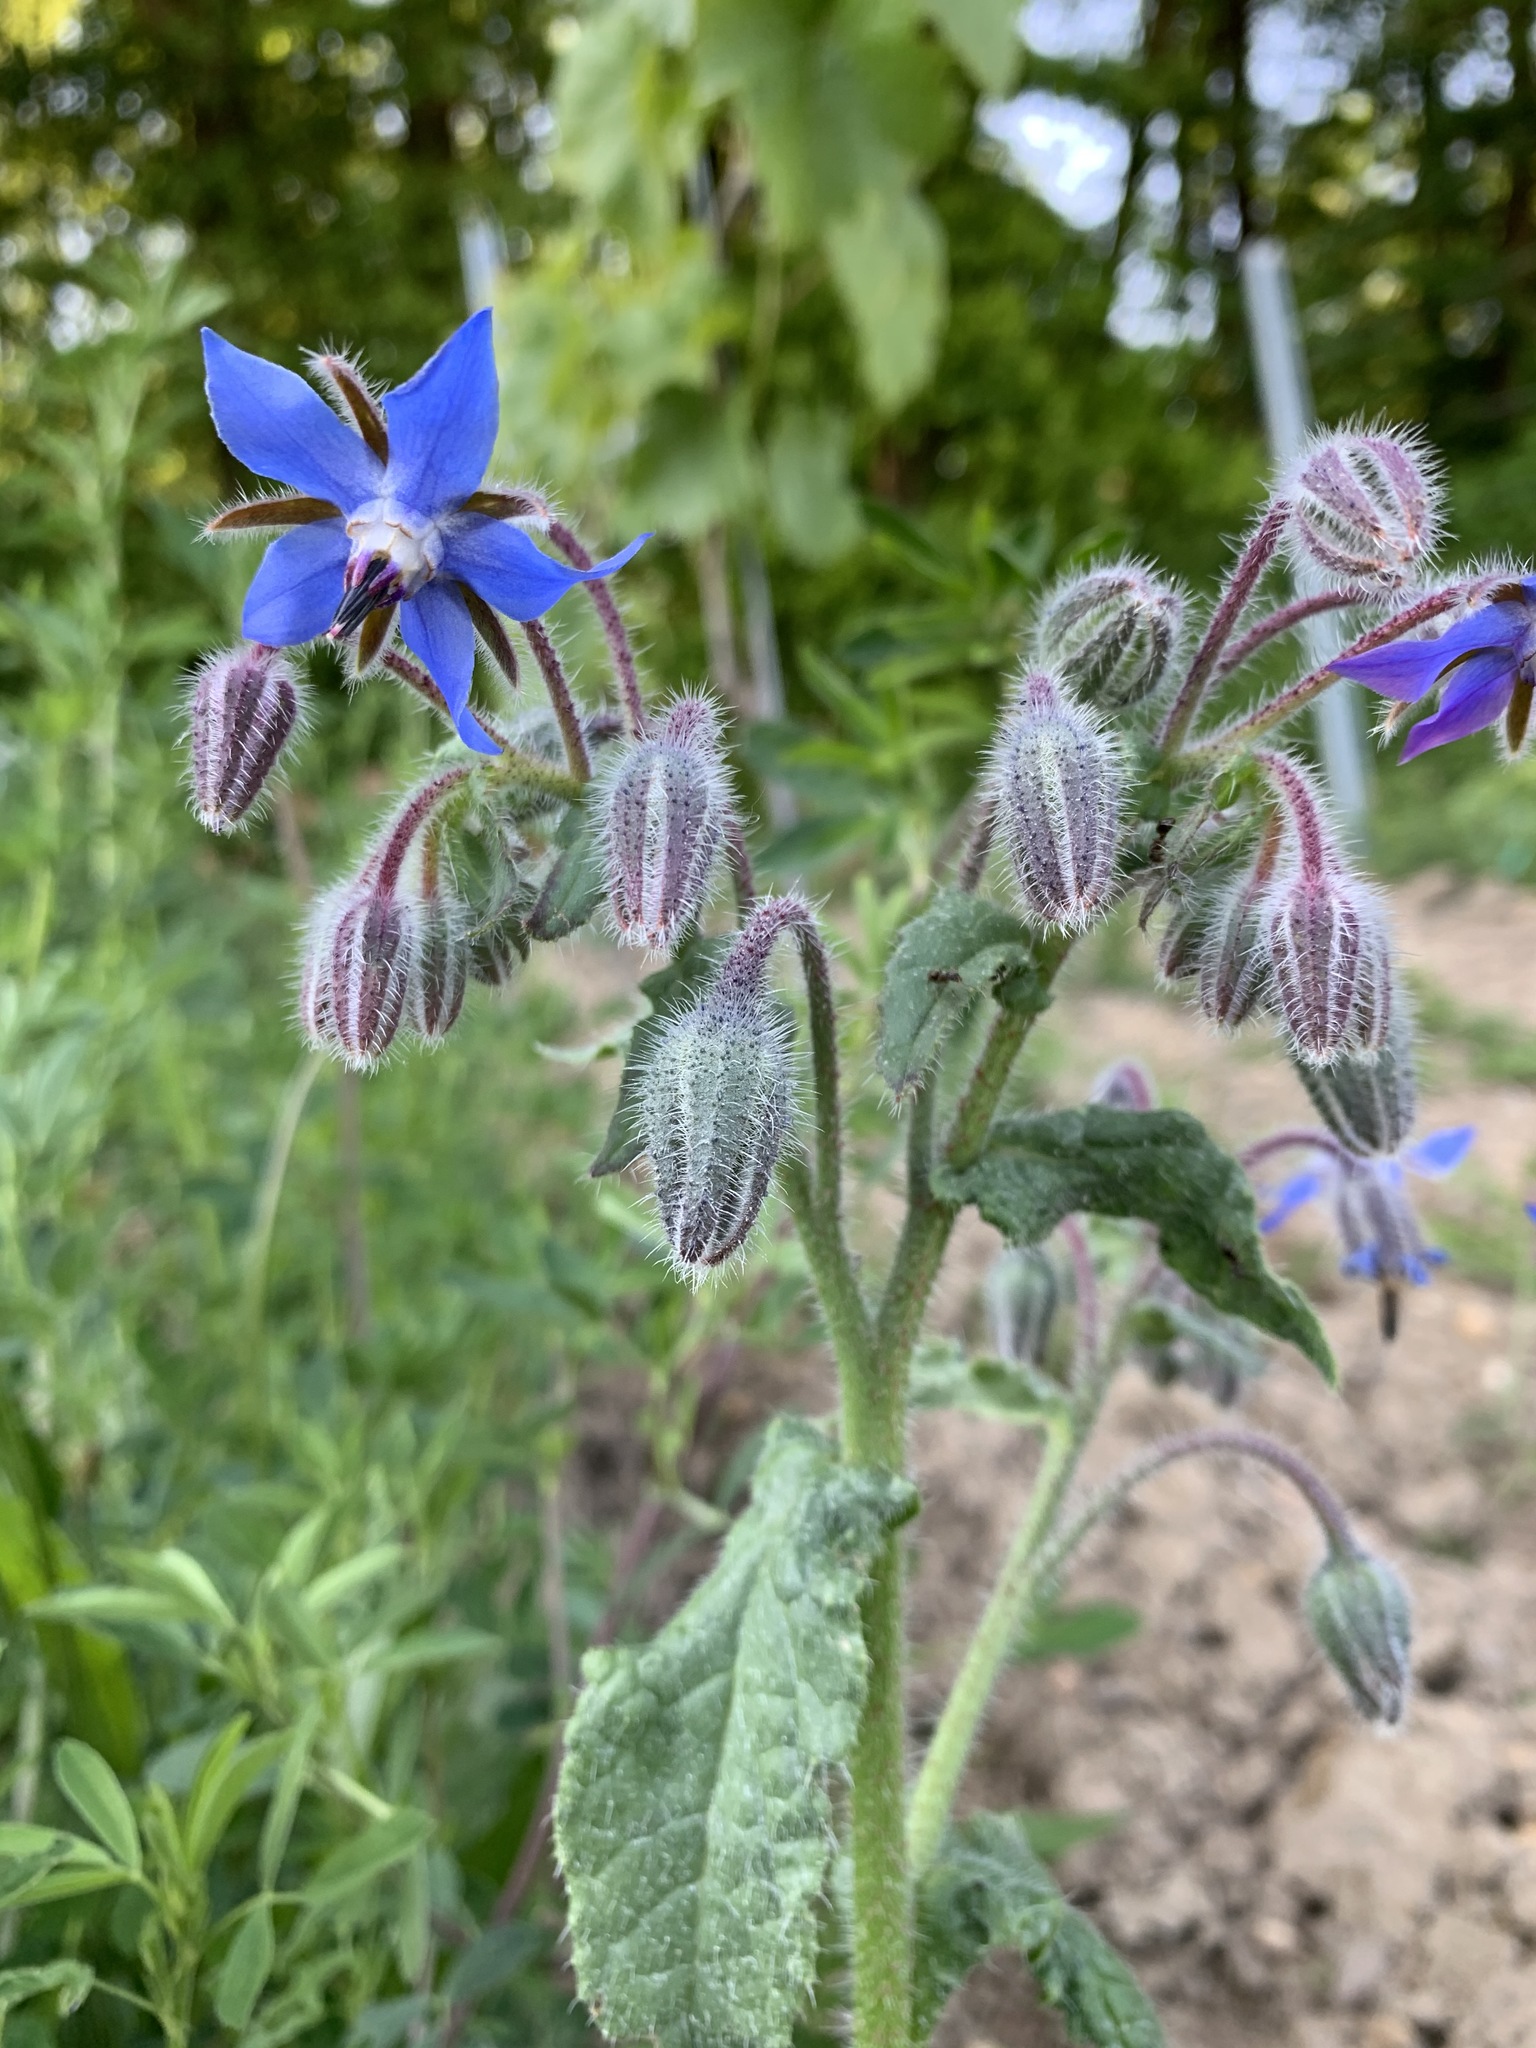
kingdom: Plantae
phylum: Tracheophyta
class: Magnoliopsida
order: Boraginales
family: Boraginaceae
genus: Borago
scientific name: Borago officinalis
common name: Borage
